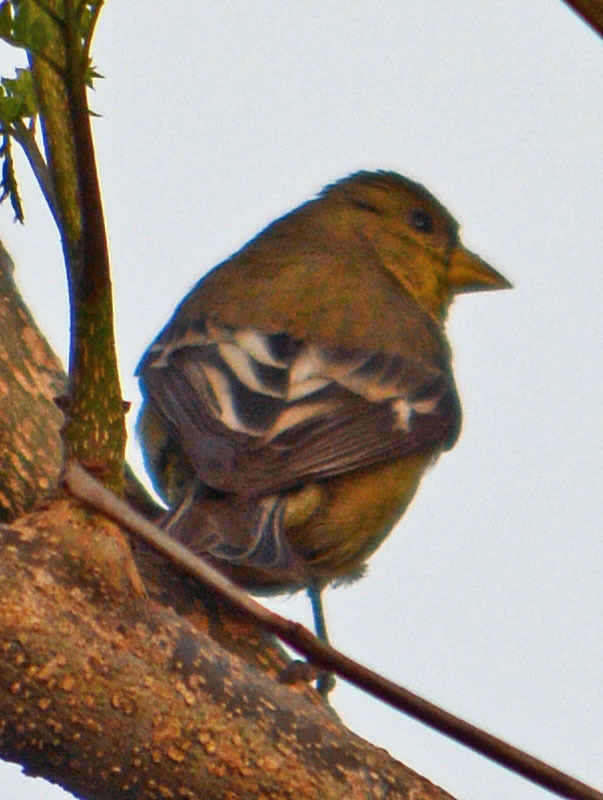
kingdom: Animalia
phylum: Chordata
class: Aves
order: Passeriformes
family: Fringillidae
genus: Spinus
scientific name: Spinus psaltria
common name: Lesser goldfinch
